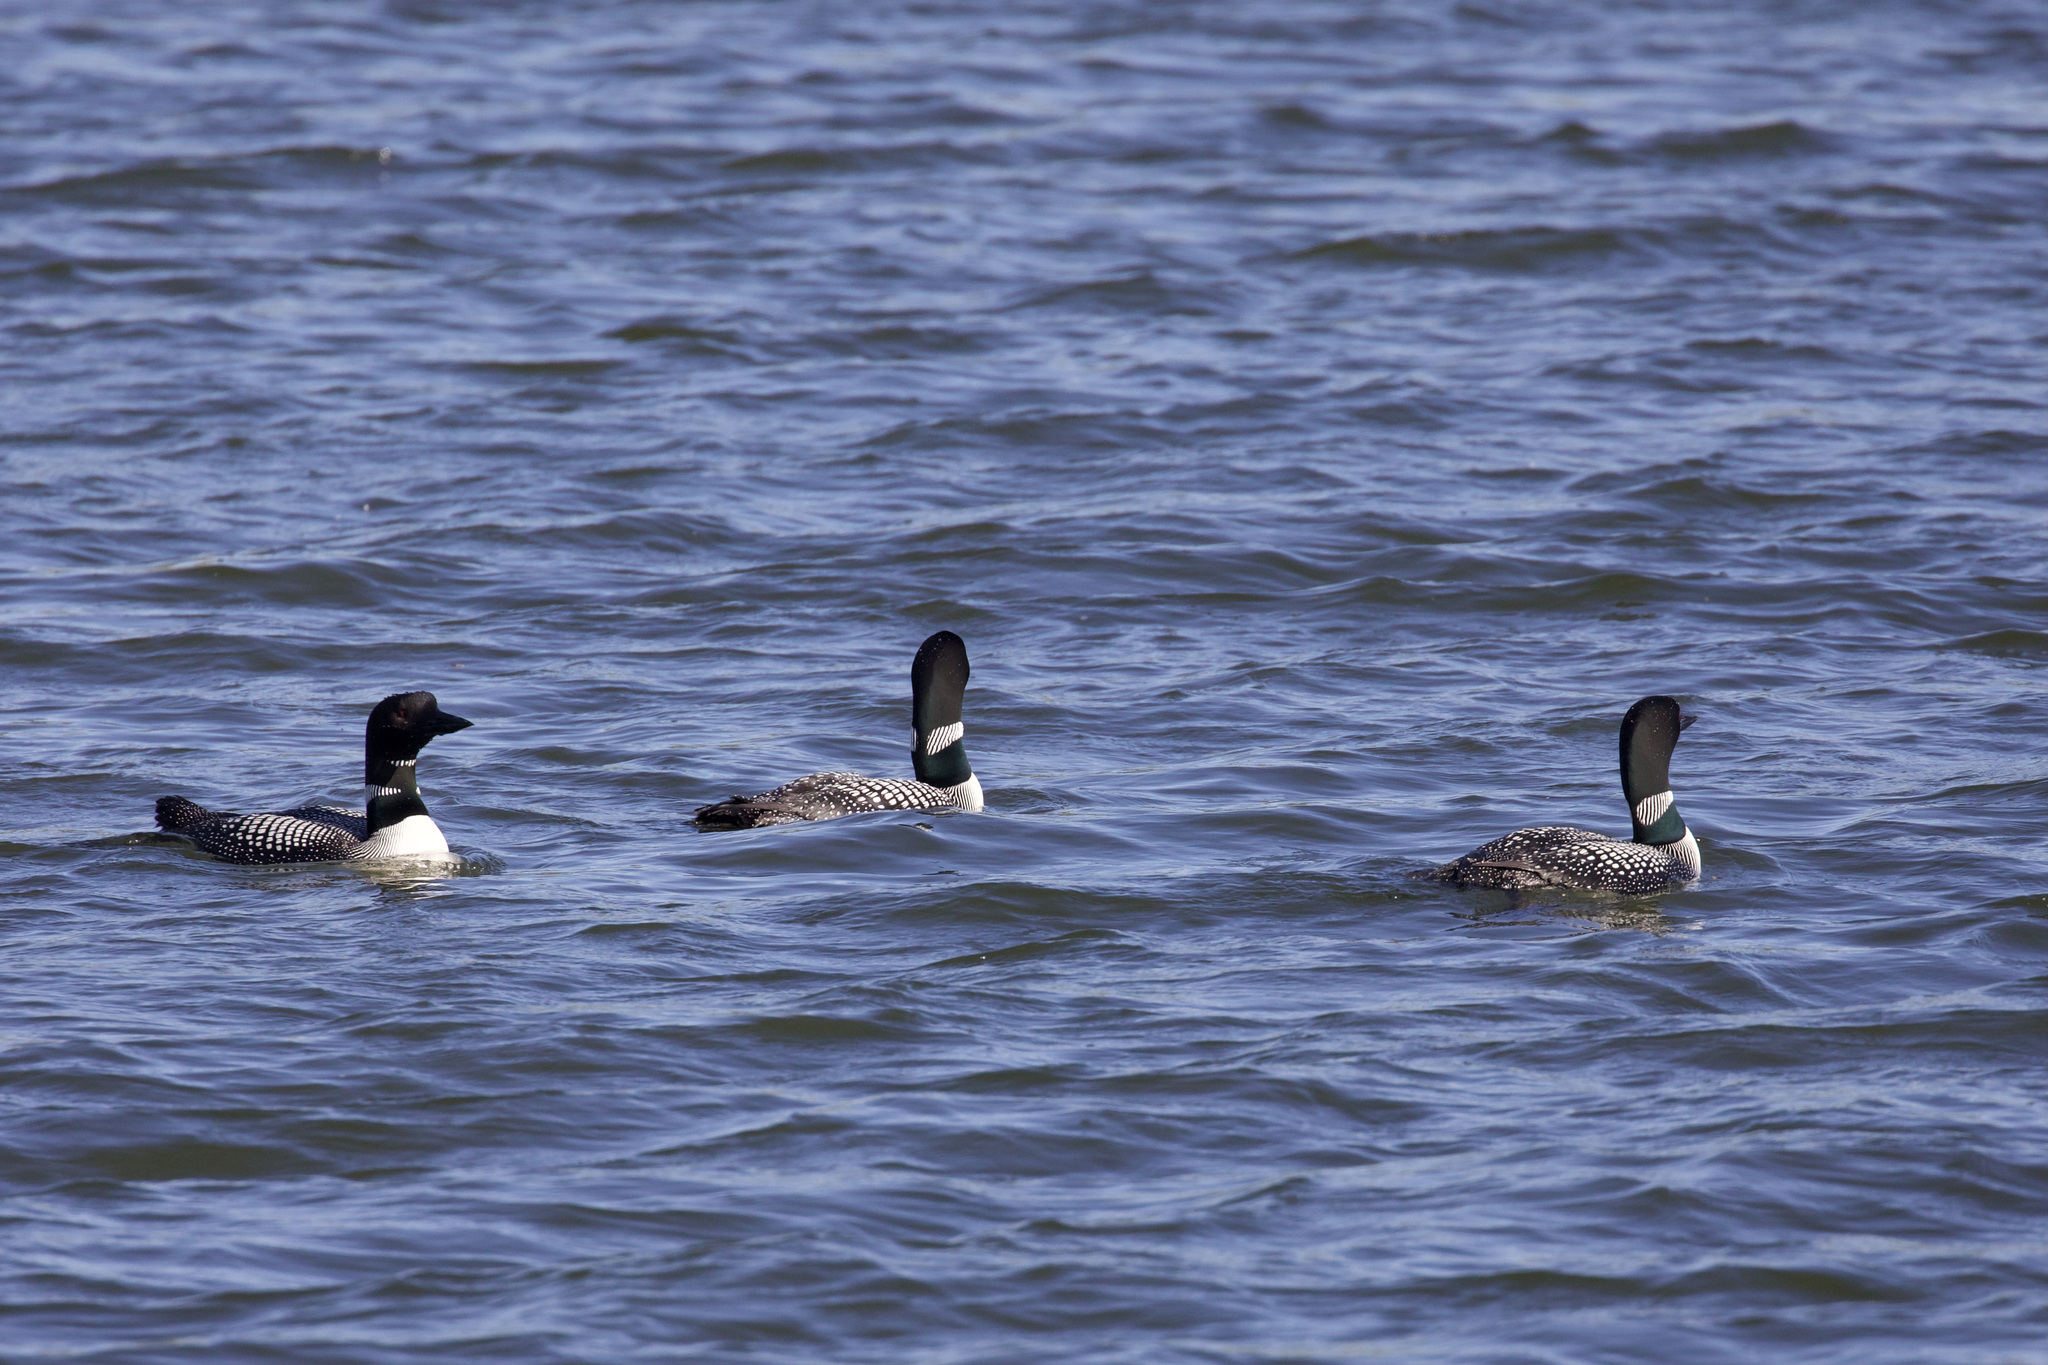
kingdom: Animalia
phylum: Chordata
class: Aves
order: Gaviiformes
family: Gaviidae
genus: Gavia
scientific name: Gavia immer
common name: Common loon
